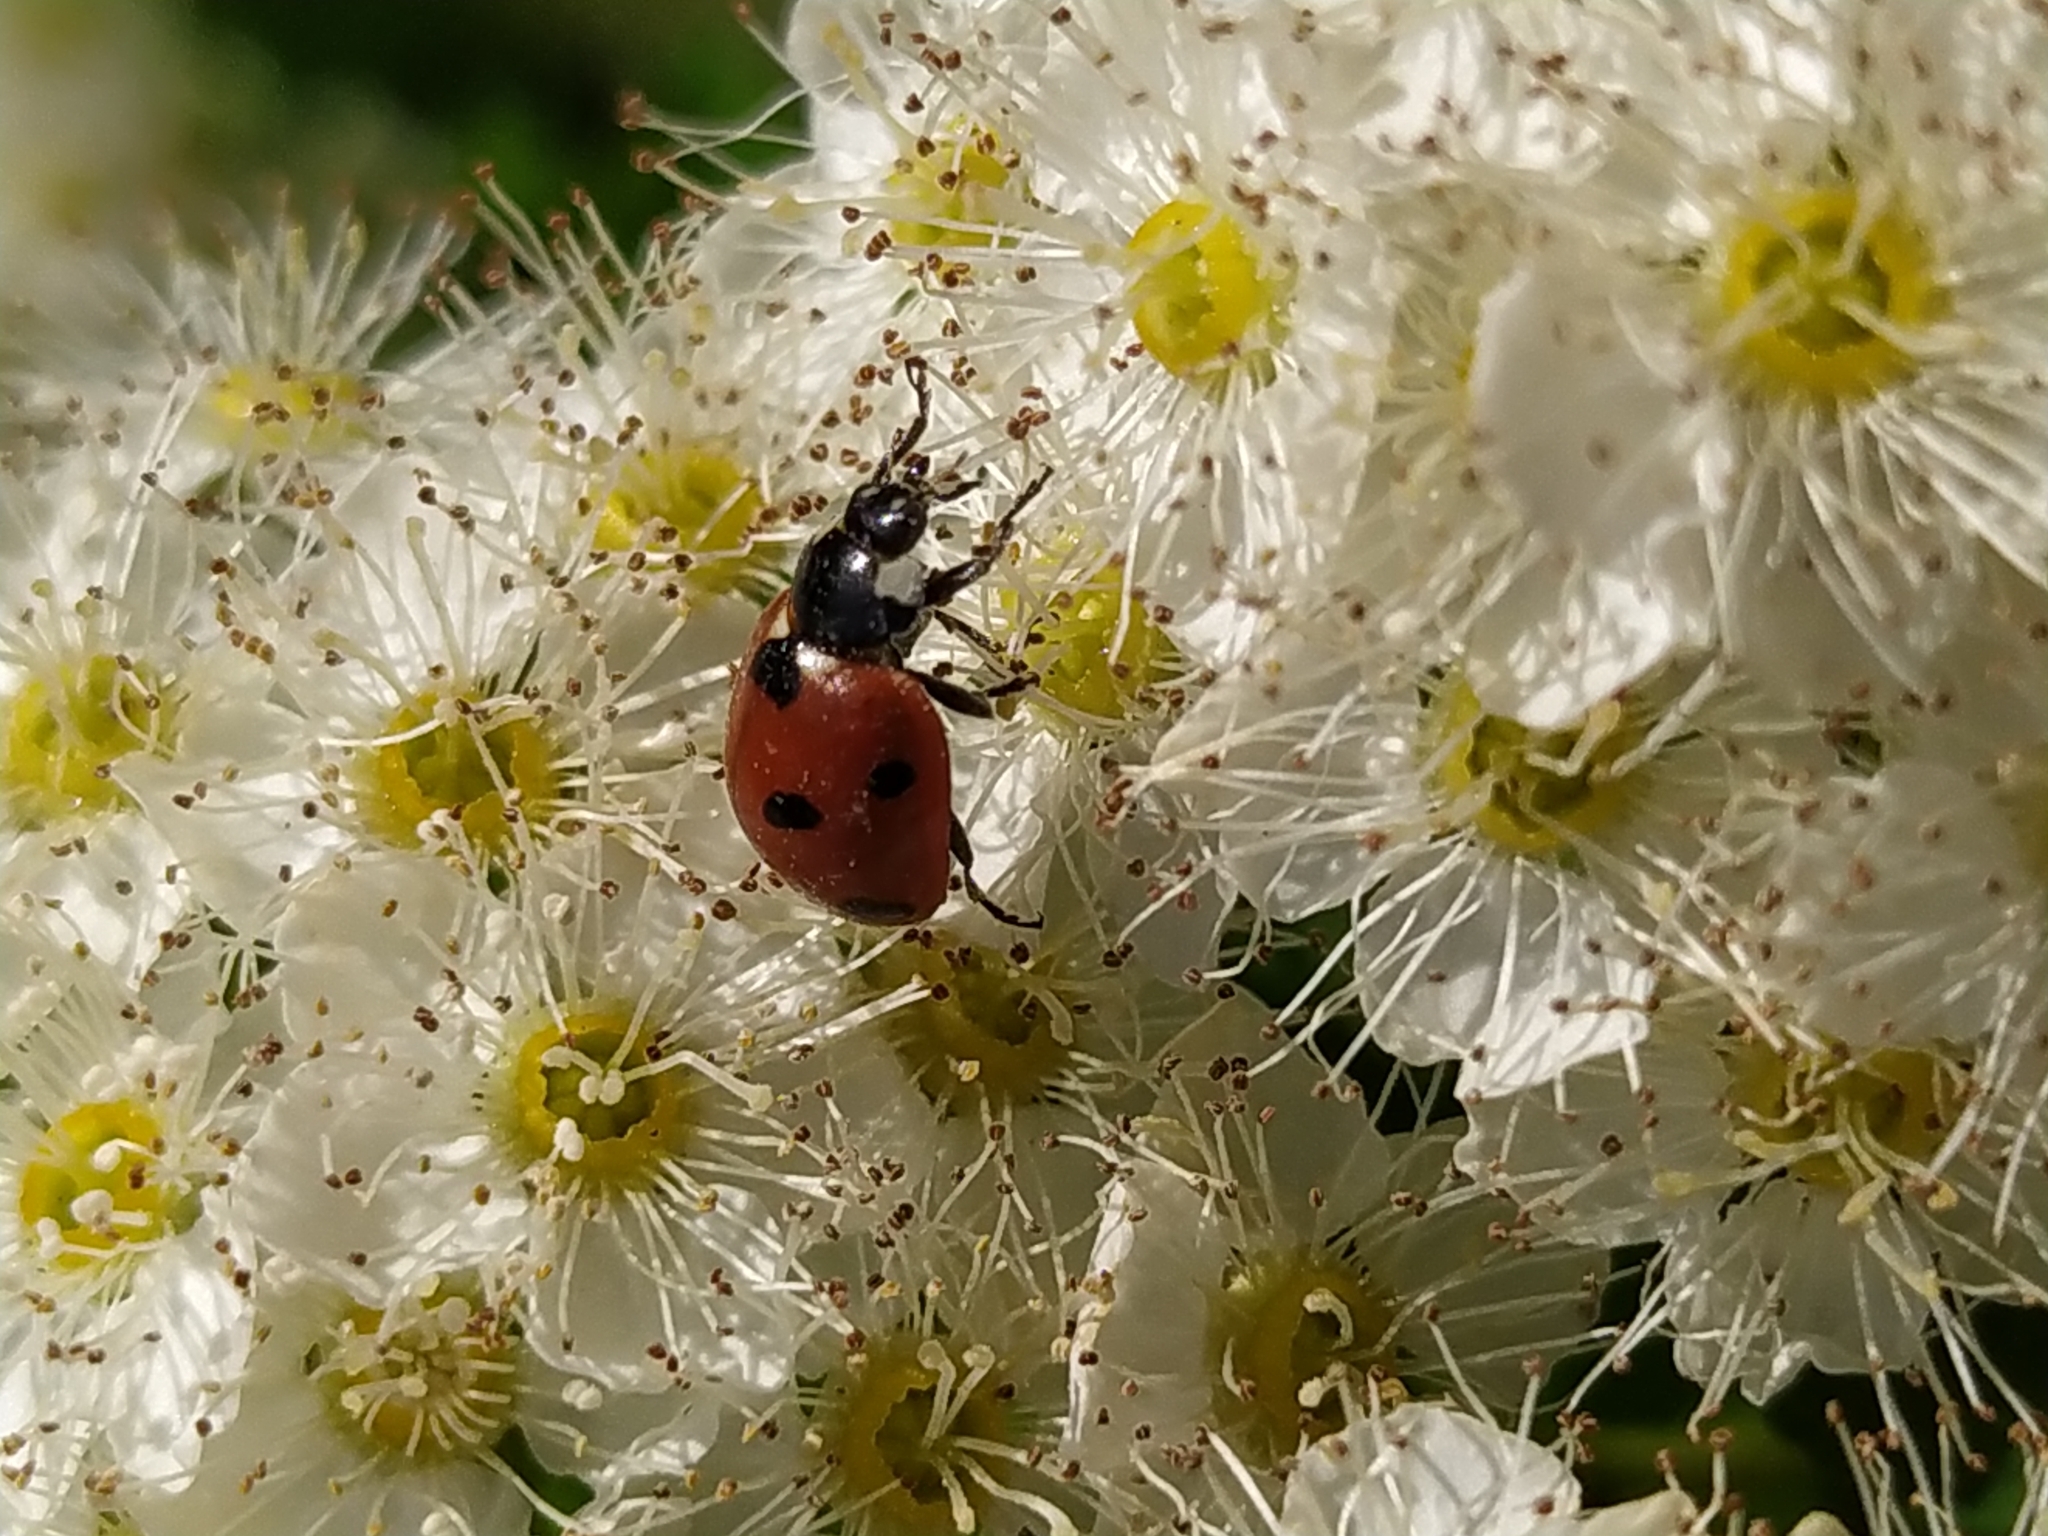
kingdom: Animalia
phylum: Arthropoda
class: Insecta
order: Coleoptera
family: Coccinellidae
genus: Coccinella
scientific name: Coccinella septempunctata
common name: Sevenspotted lady beetle
